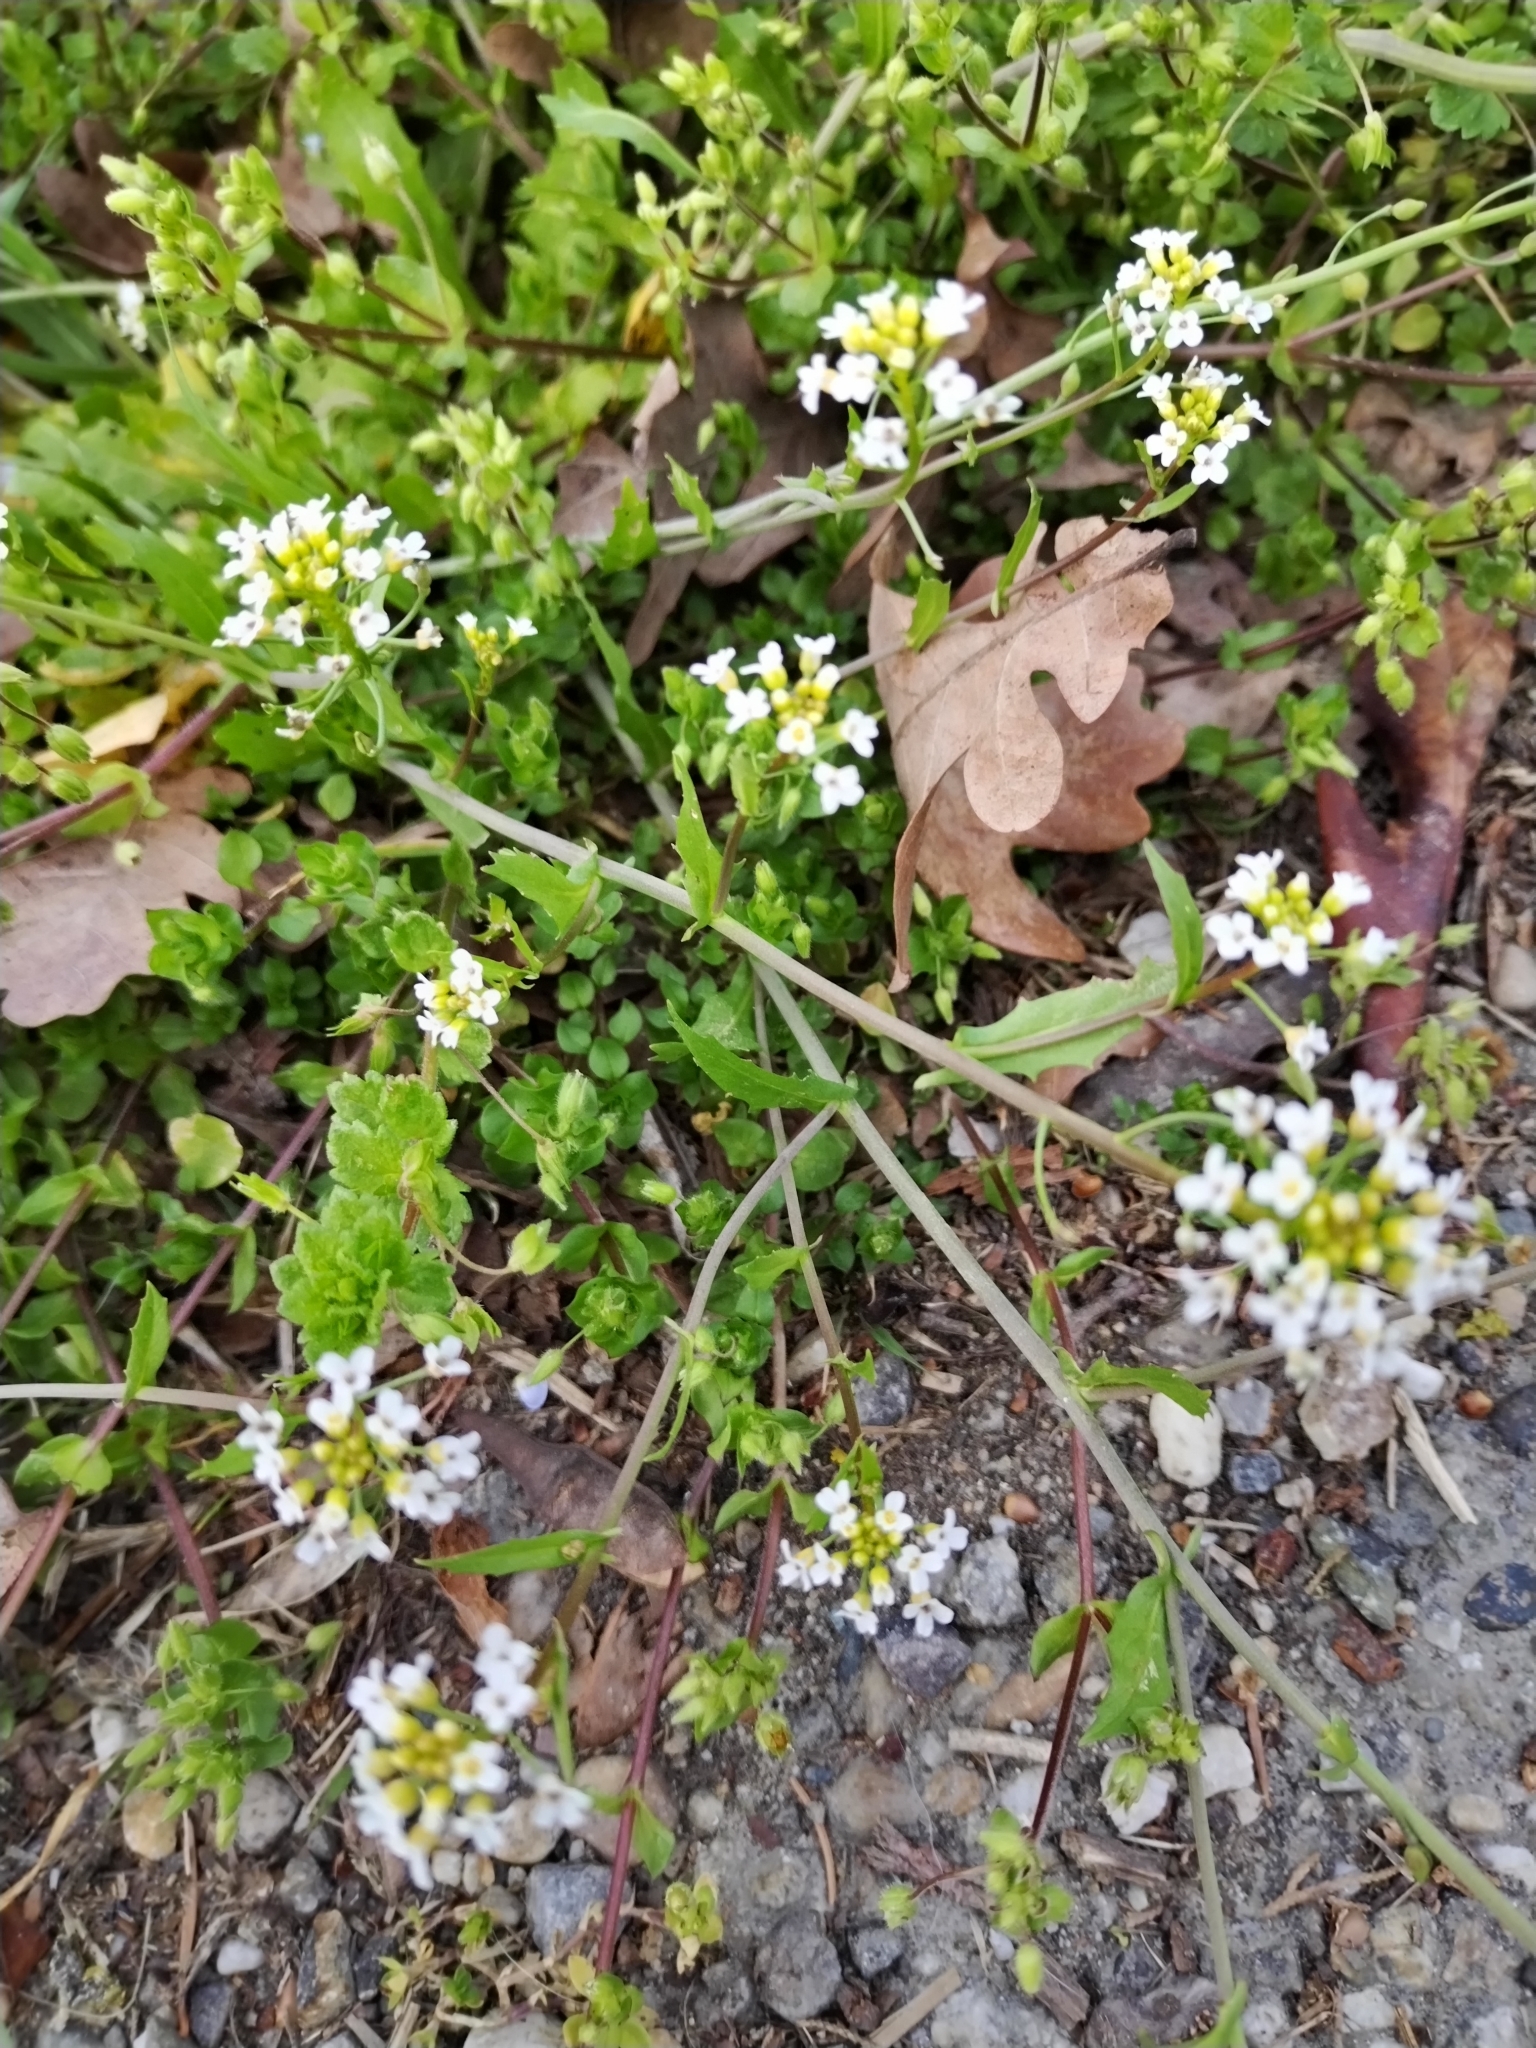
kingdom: Plantae
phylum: Tracheophyta
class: Magnoliopsida
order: Brassicales
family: Brassicaceae
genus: Calepina
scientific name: Calepina irregularis
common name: White ballmustard
